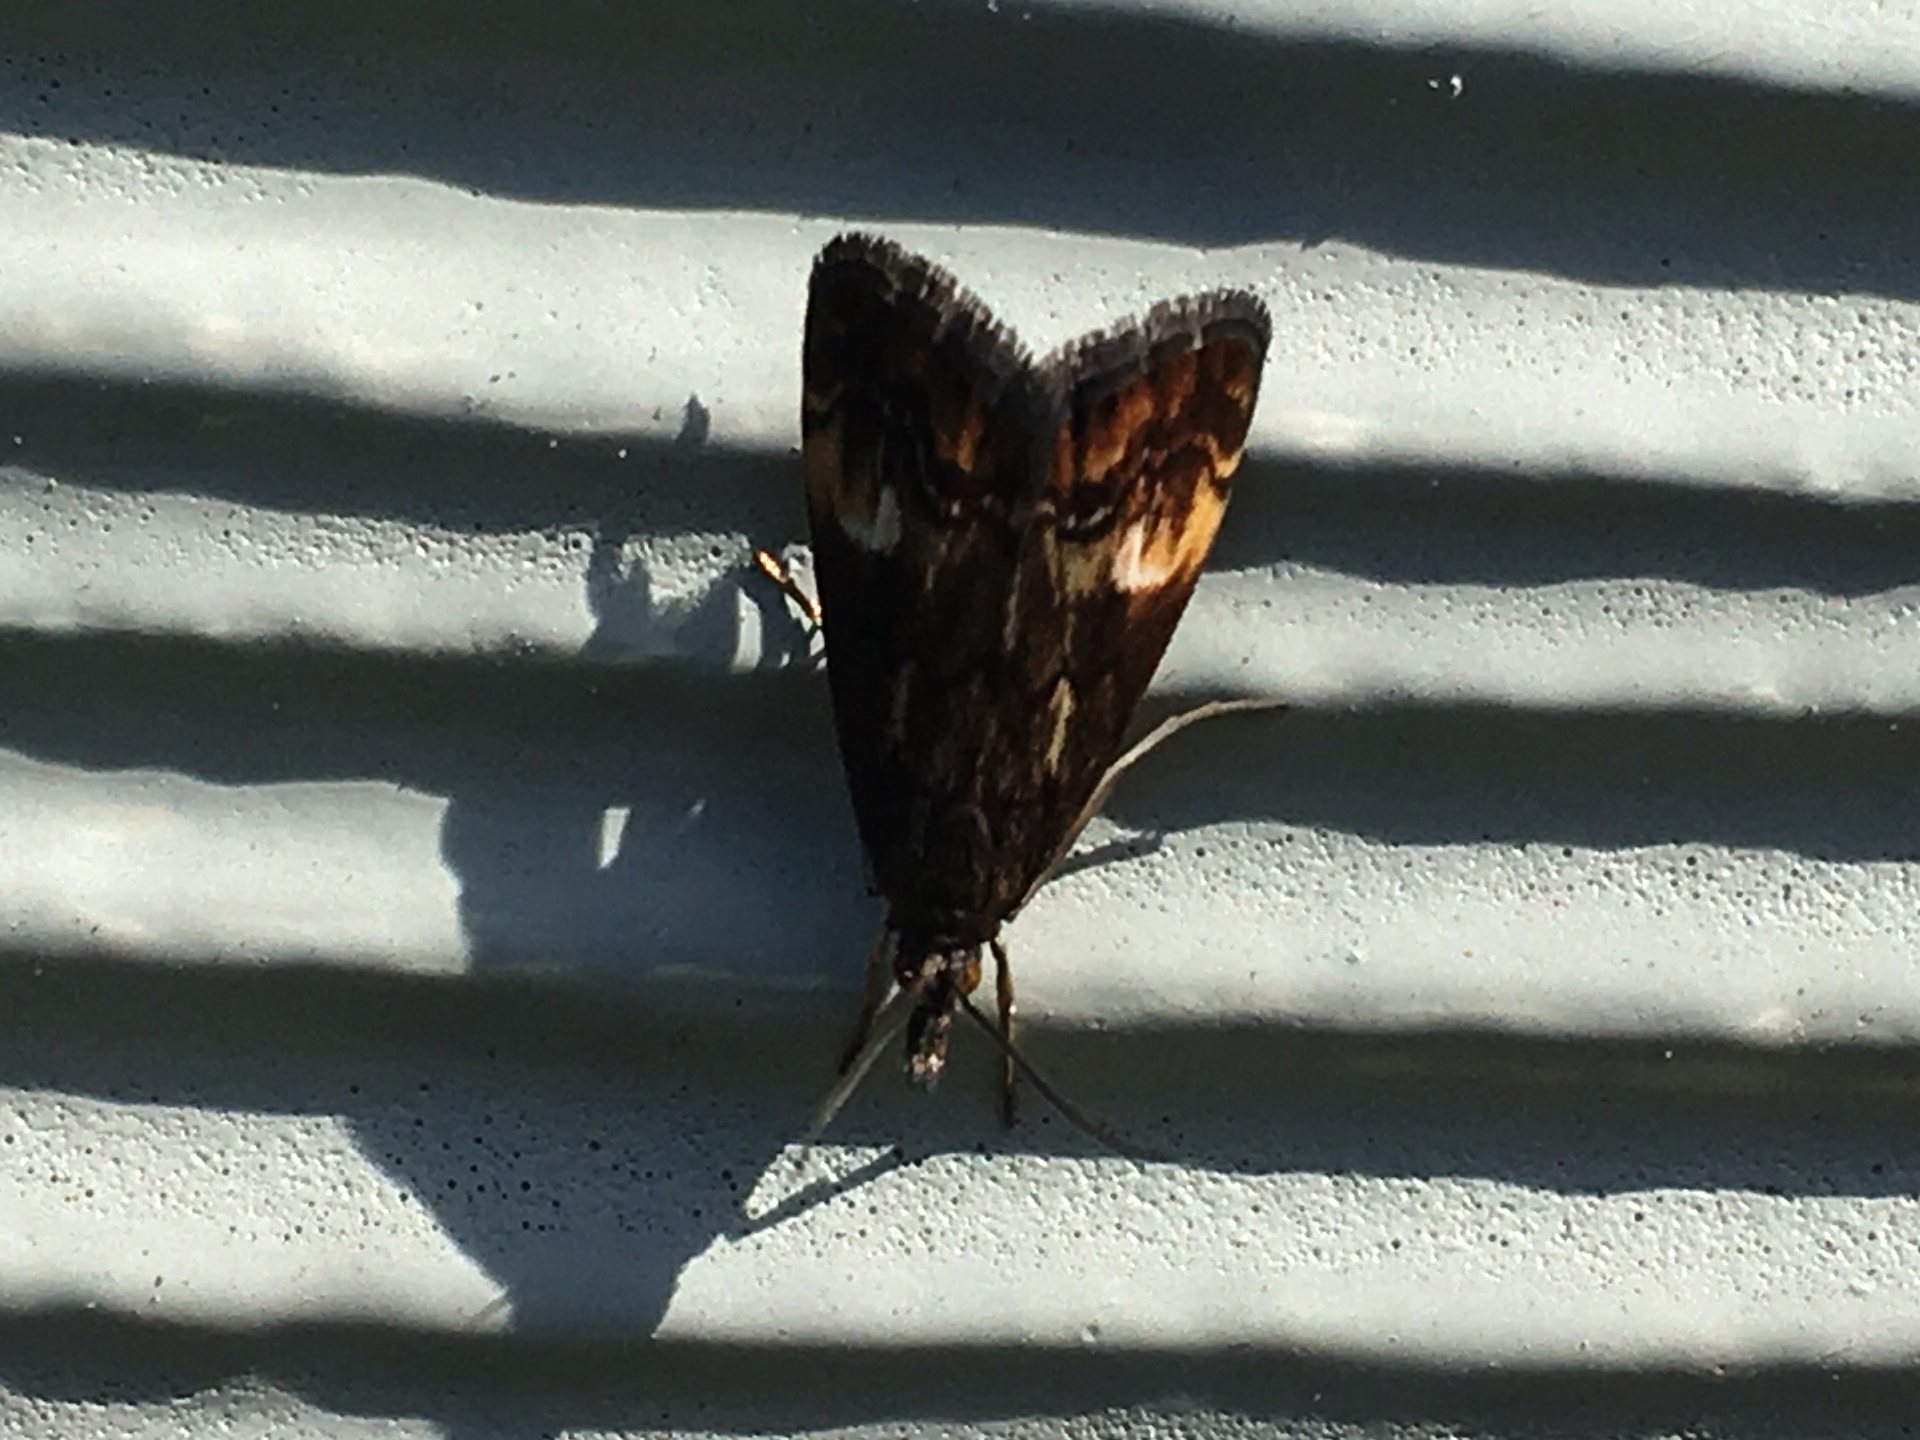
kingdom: Animalia
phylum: Arthropoda
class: Insecta
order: Lepidoptera
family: Crambidae
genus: Glaucocharis
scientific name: Glaucocharis helioctypa
